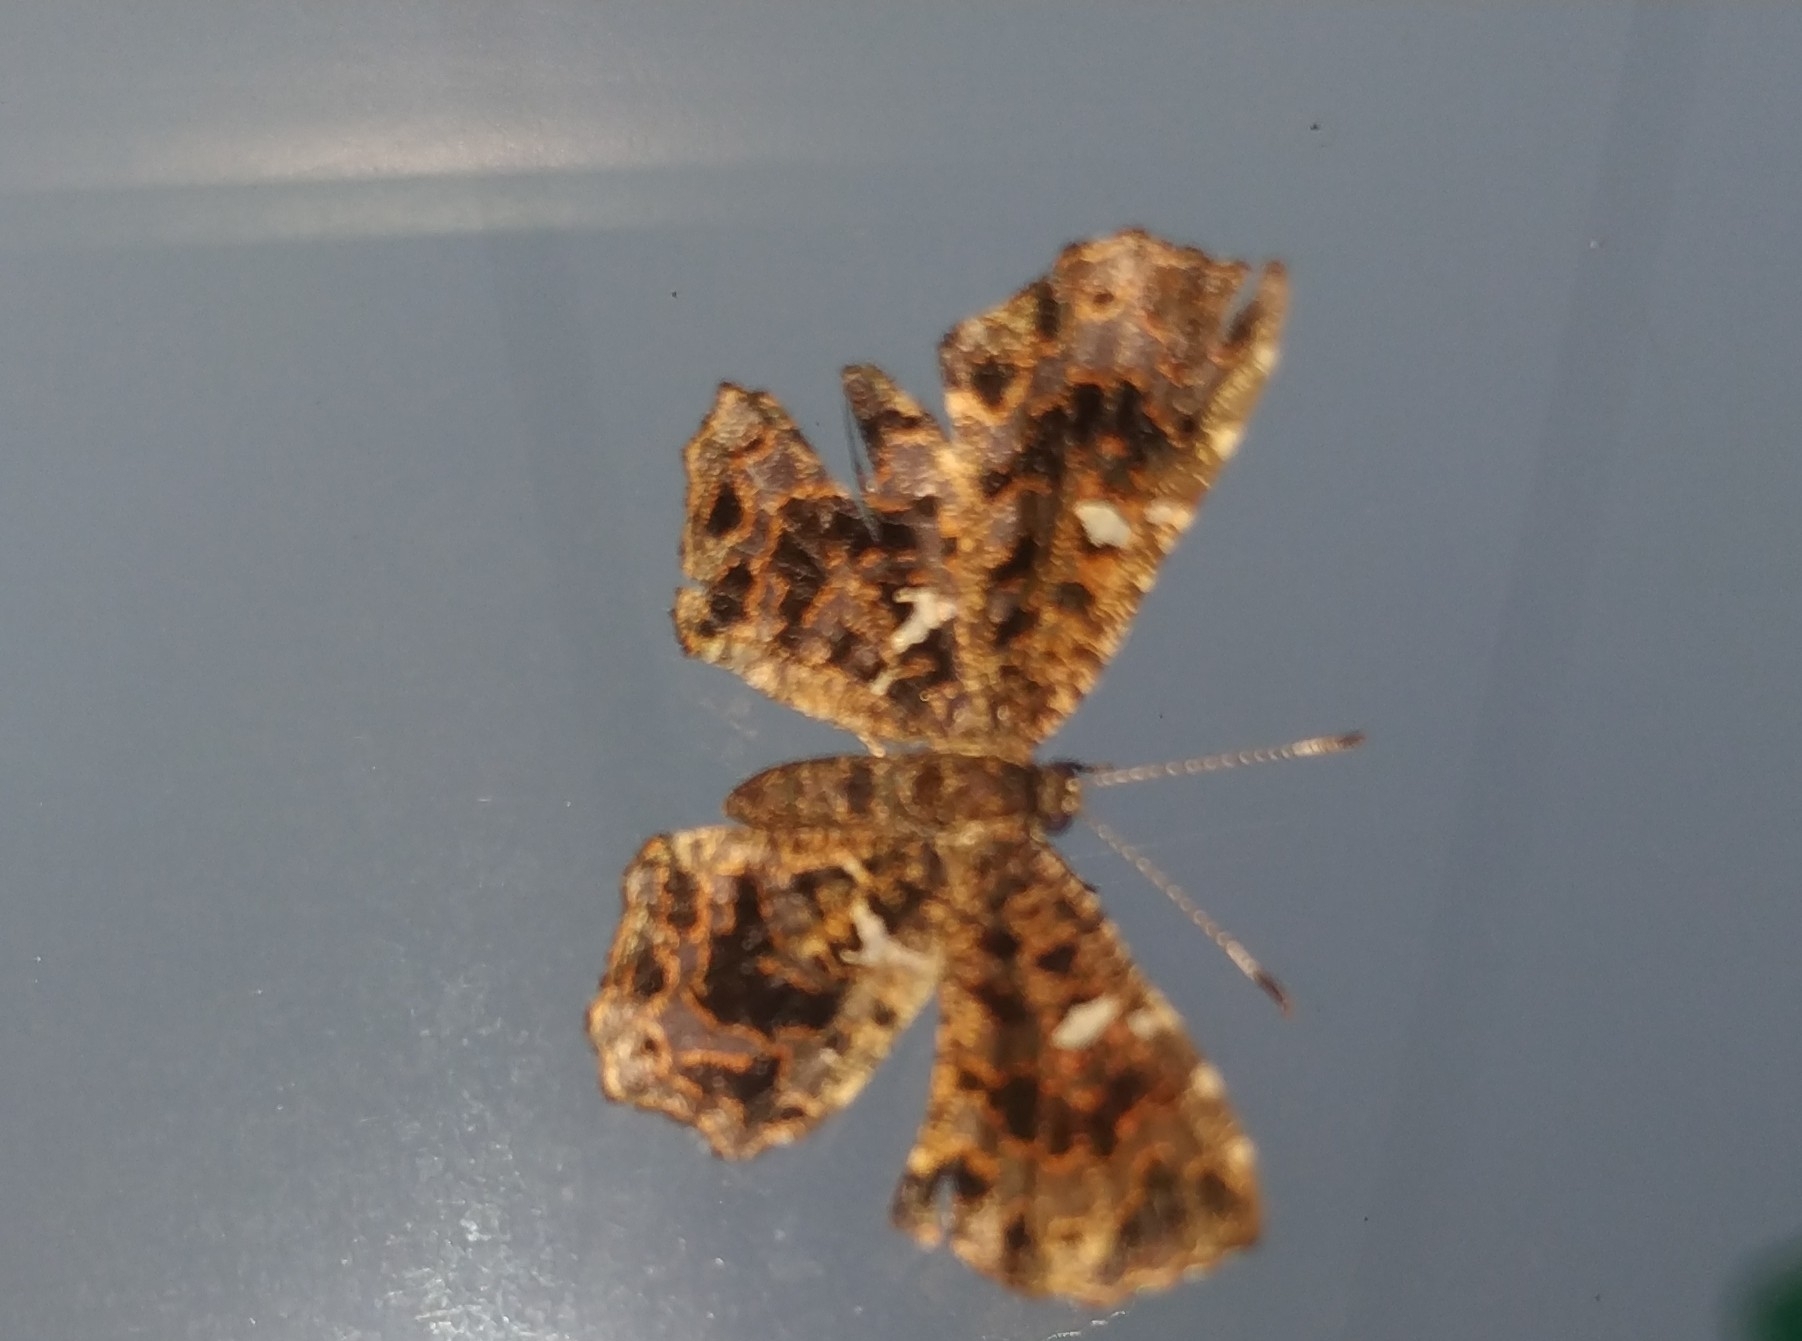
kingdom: Animalia
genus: Calydna
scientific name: Calydna sturnula
